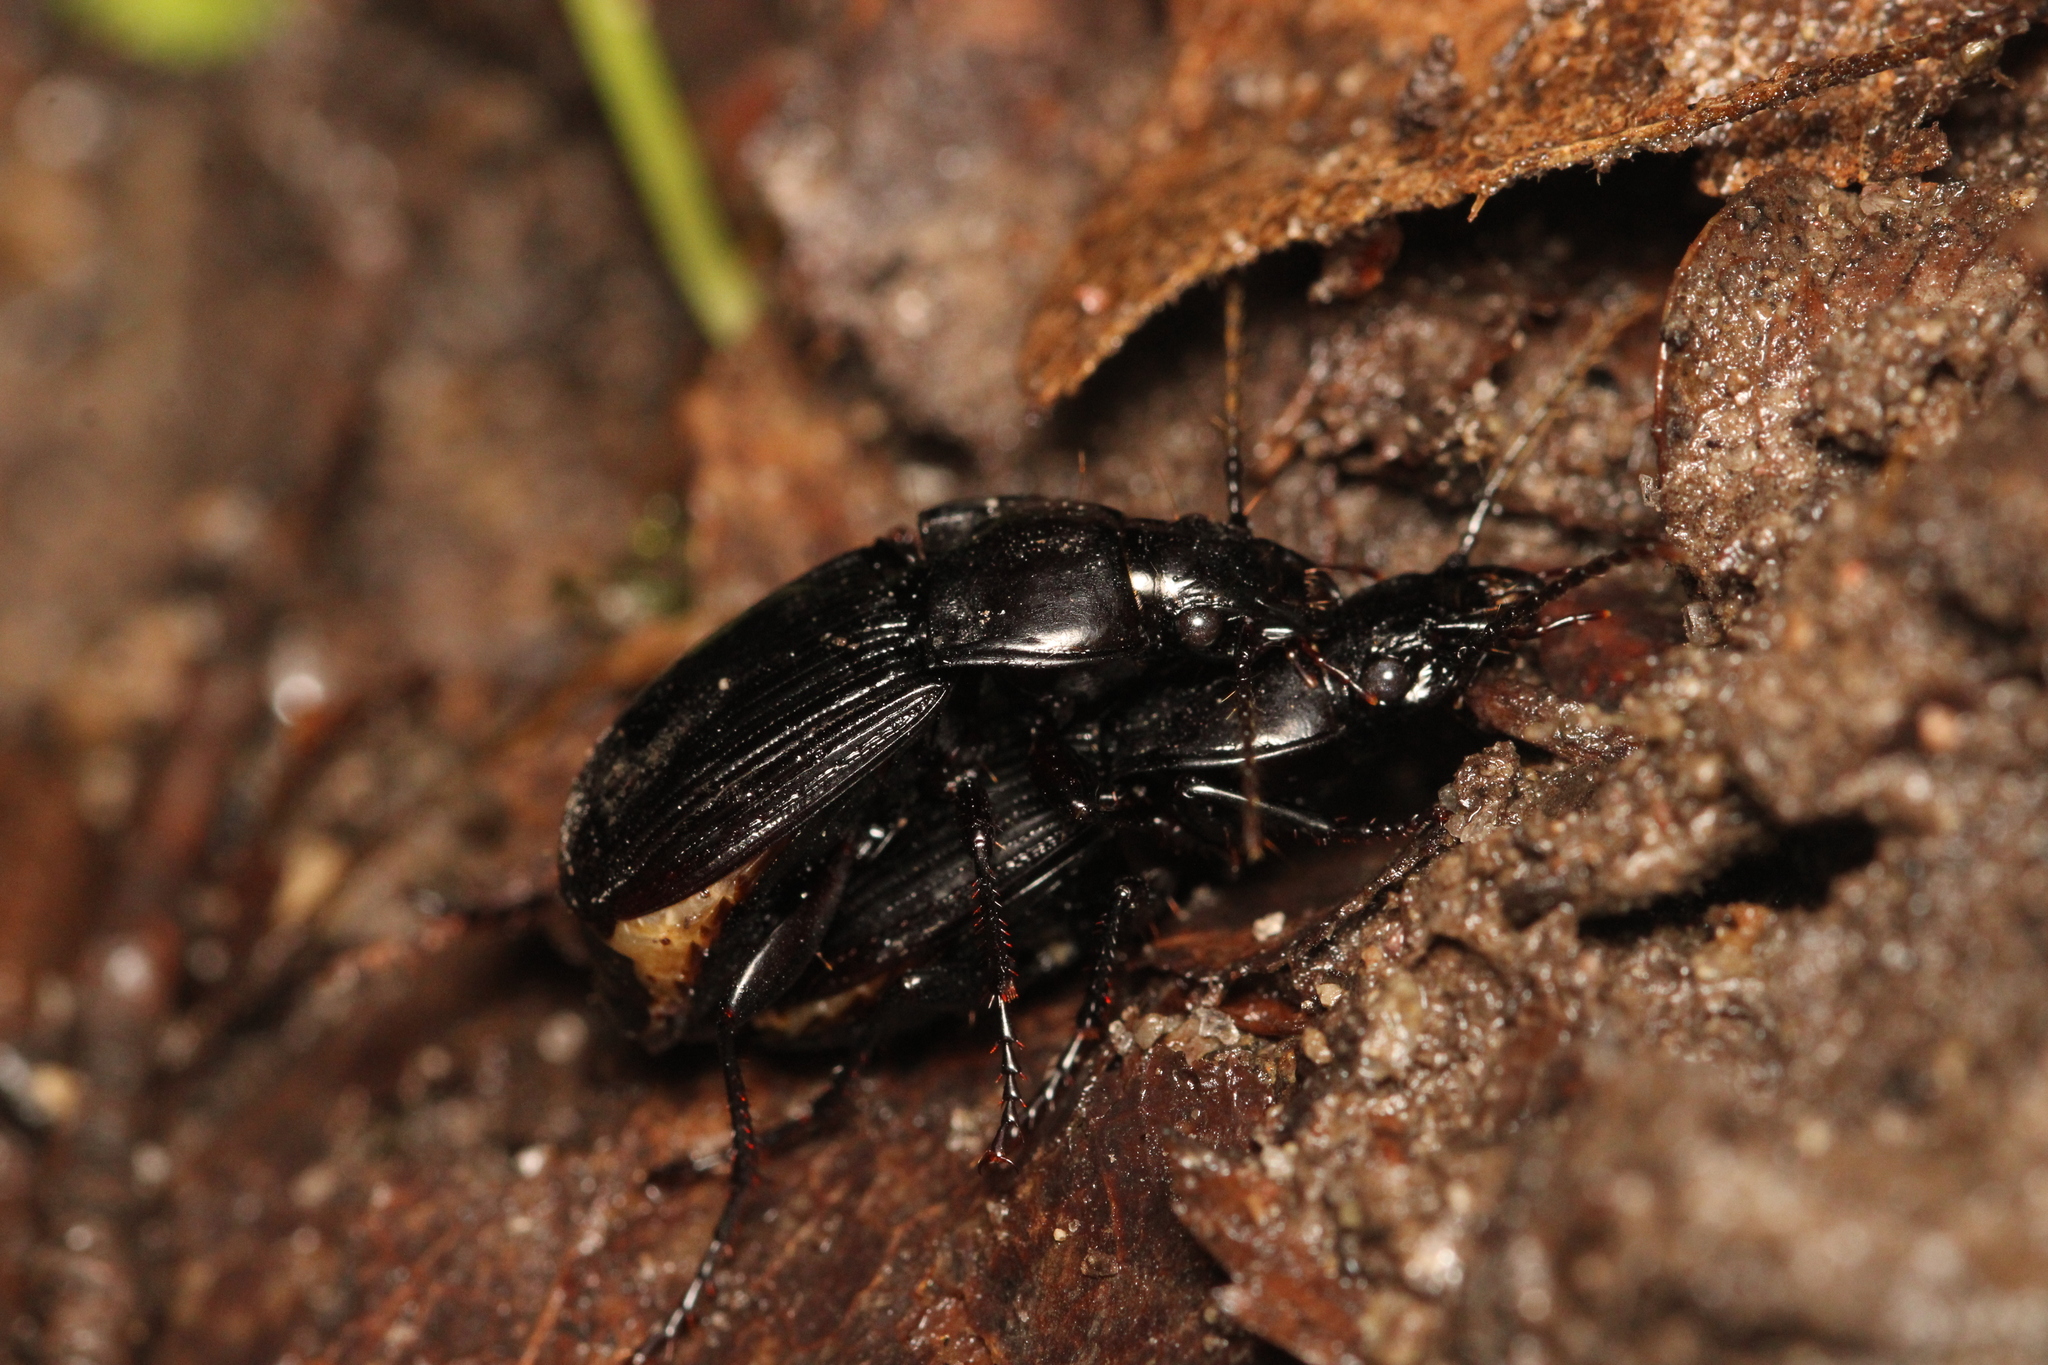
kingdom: Animalia
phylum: Arthropoda
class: Insecta
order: Coleoptera
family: Carabidae
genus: Abax
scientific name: Abax carinatus
